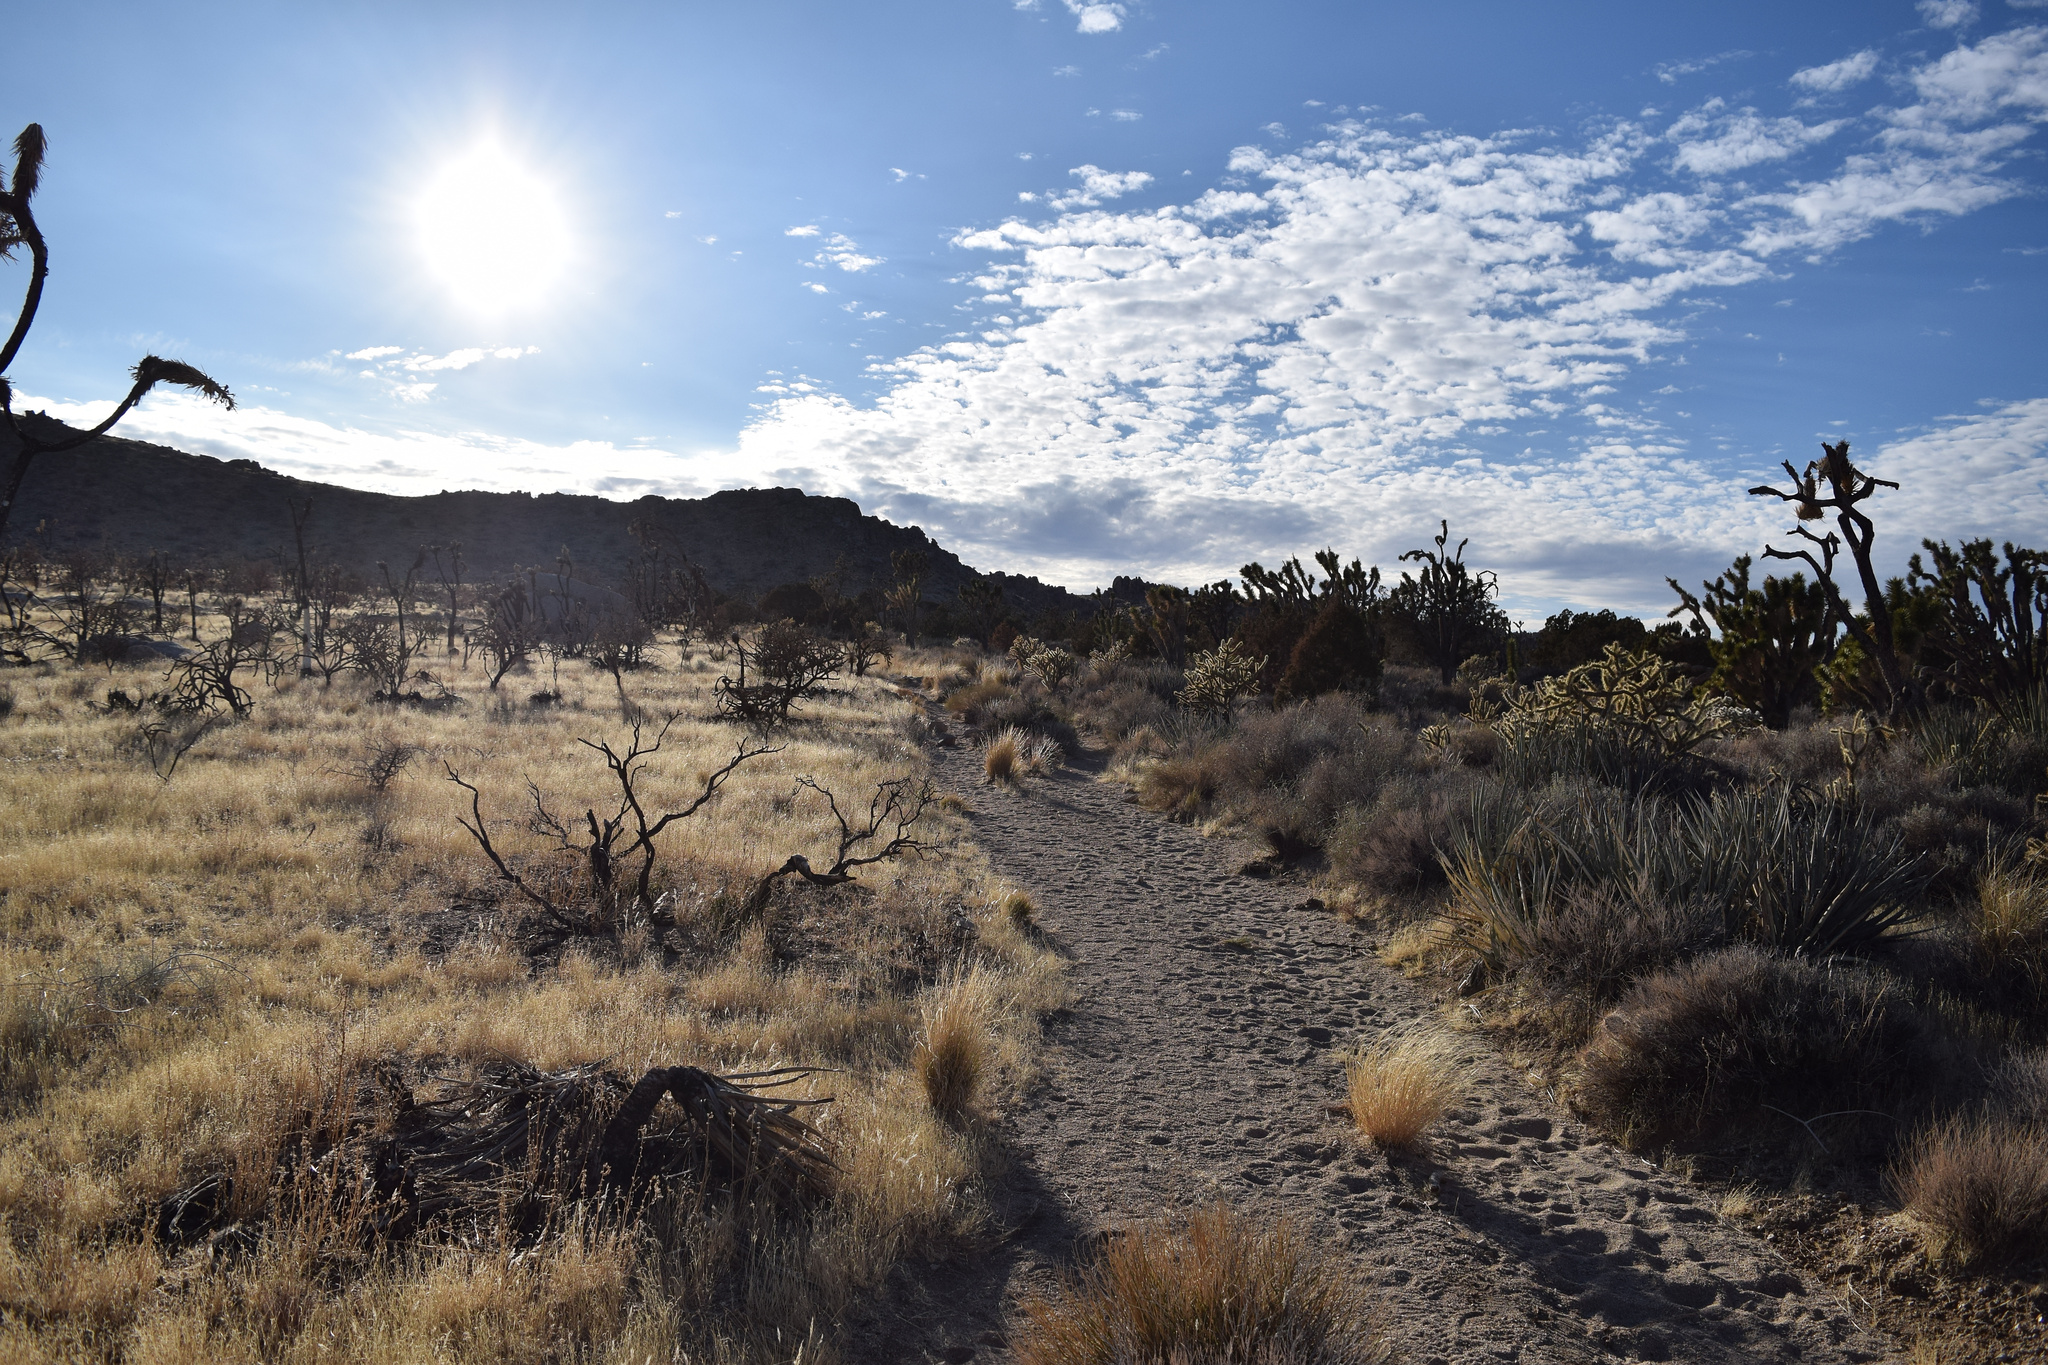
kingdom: Plantae
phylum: Tracheophyta
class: Liliopsida
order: Asparagales
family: Asparagaceae
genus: Yucca
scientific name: Yucca brevifolia
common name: Joshua tree
